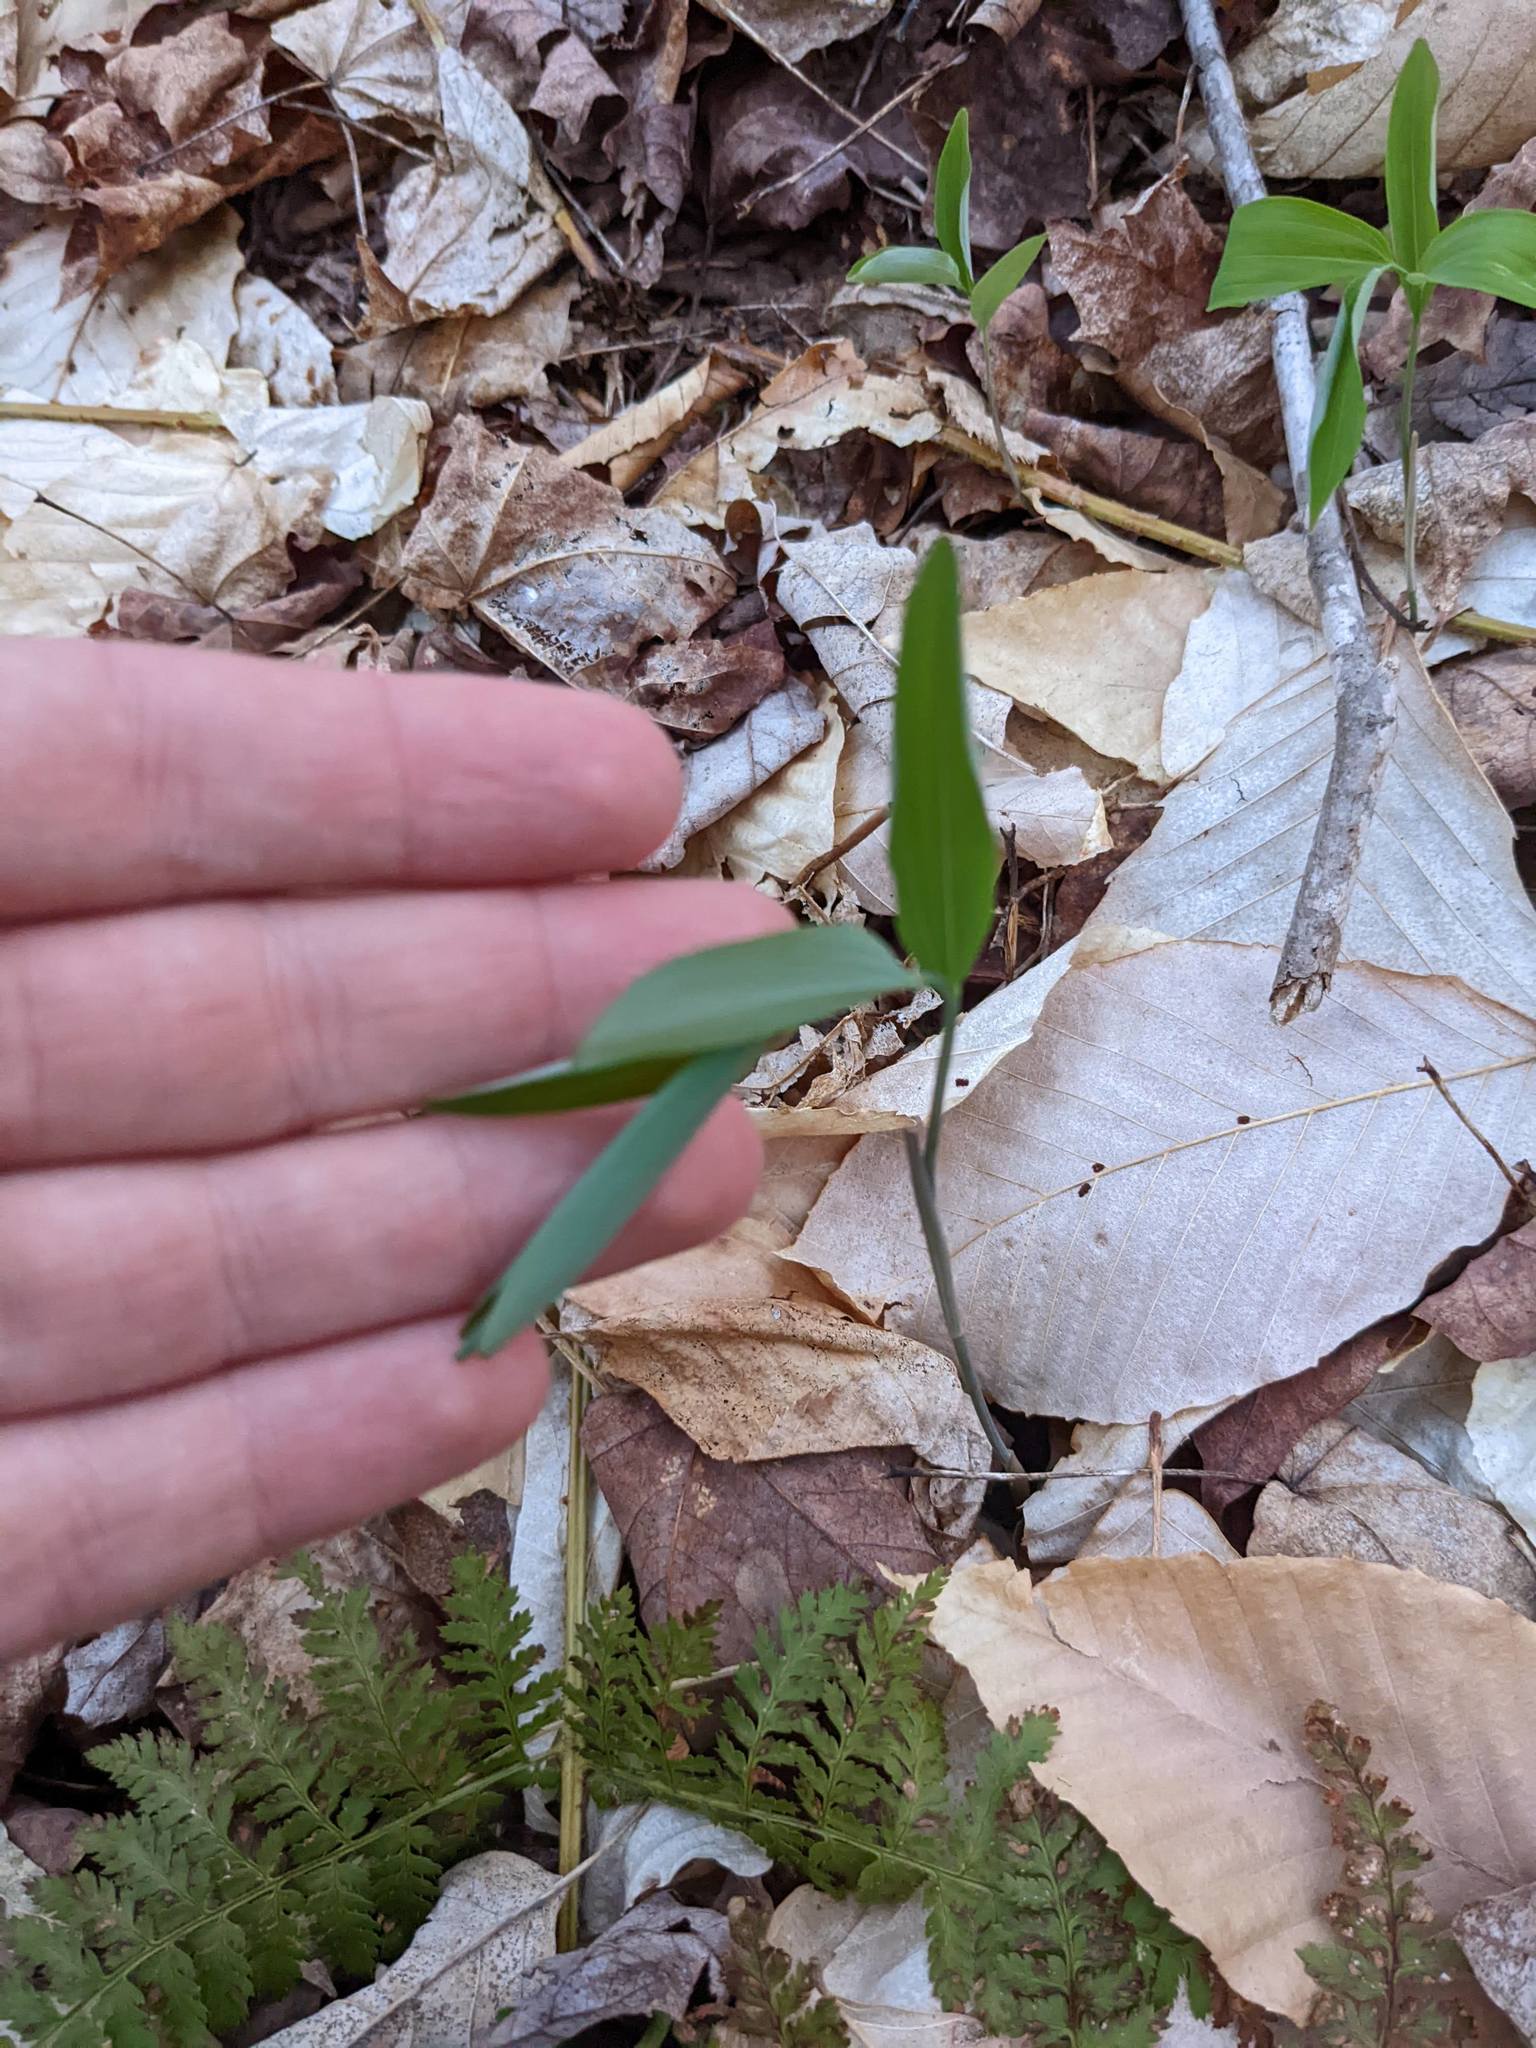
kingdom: Plantae
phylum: Tracheophyta
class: Liliopsida
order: Asparagales
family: Asparagaceae
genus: Polygonatum
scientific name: Polygonatum pubescens
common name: Downy solomon's seal
